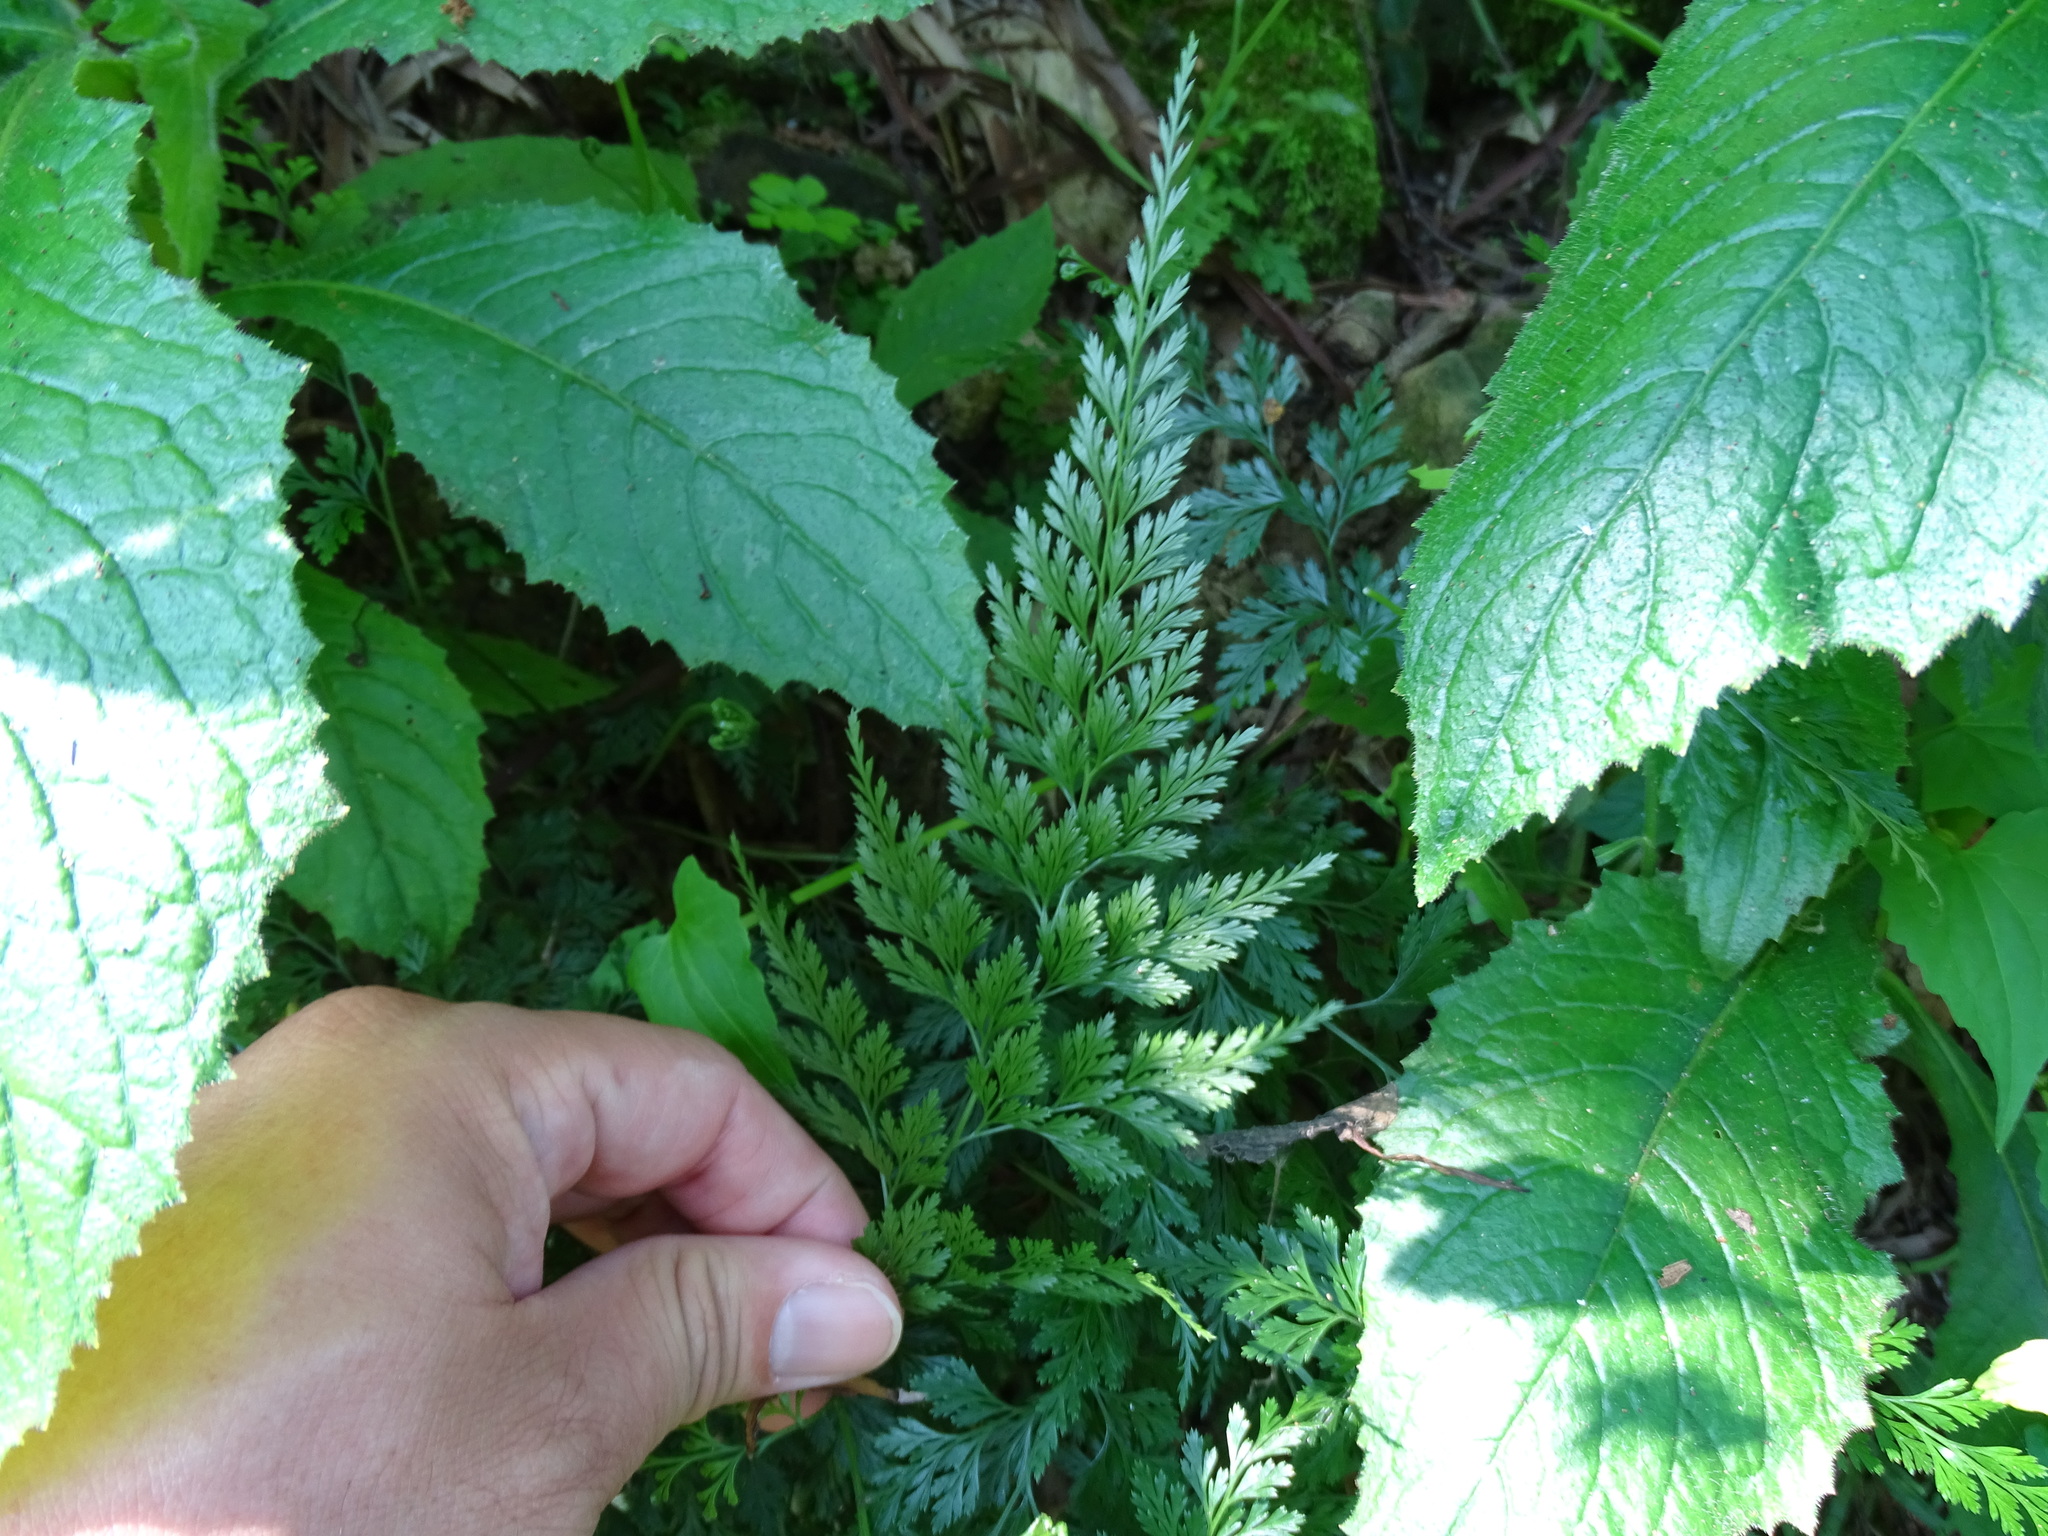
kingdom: Plantae
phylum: Tracheophyta
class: Polypodiopsida
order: Polypodiales
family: Pteridaceae
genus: Onychium
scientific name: Onychium japonicum
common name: Carrot fern
